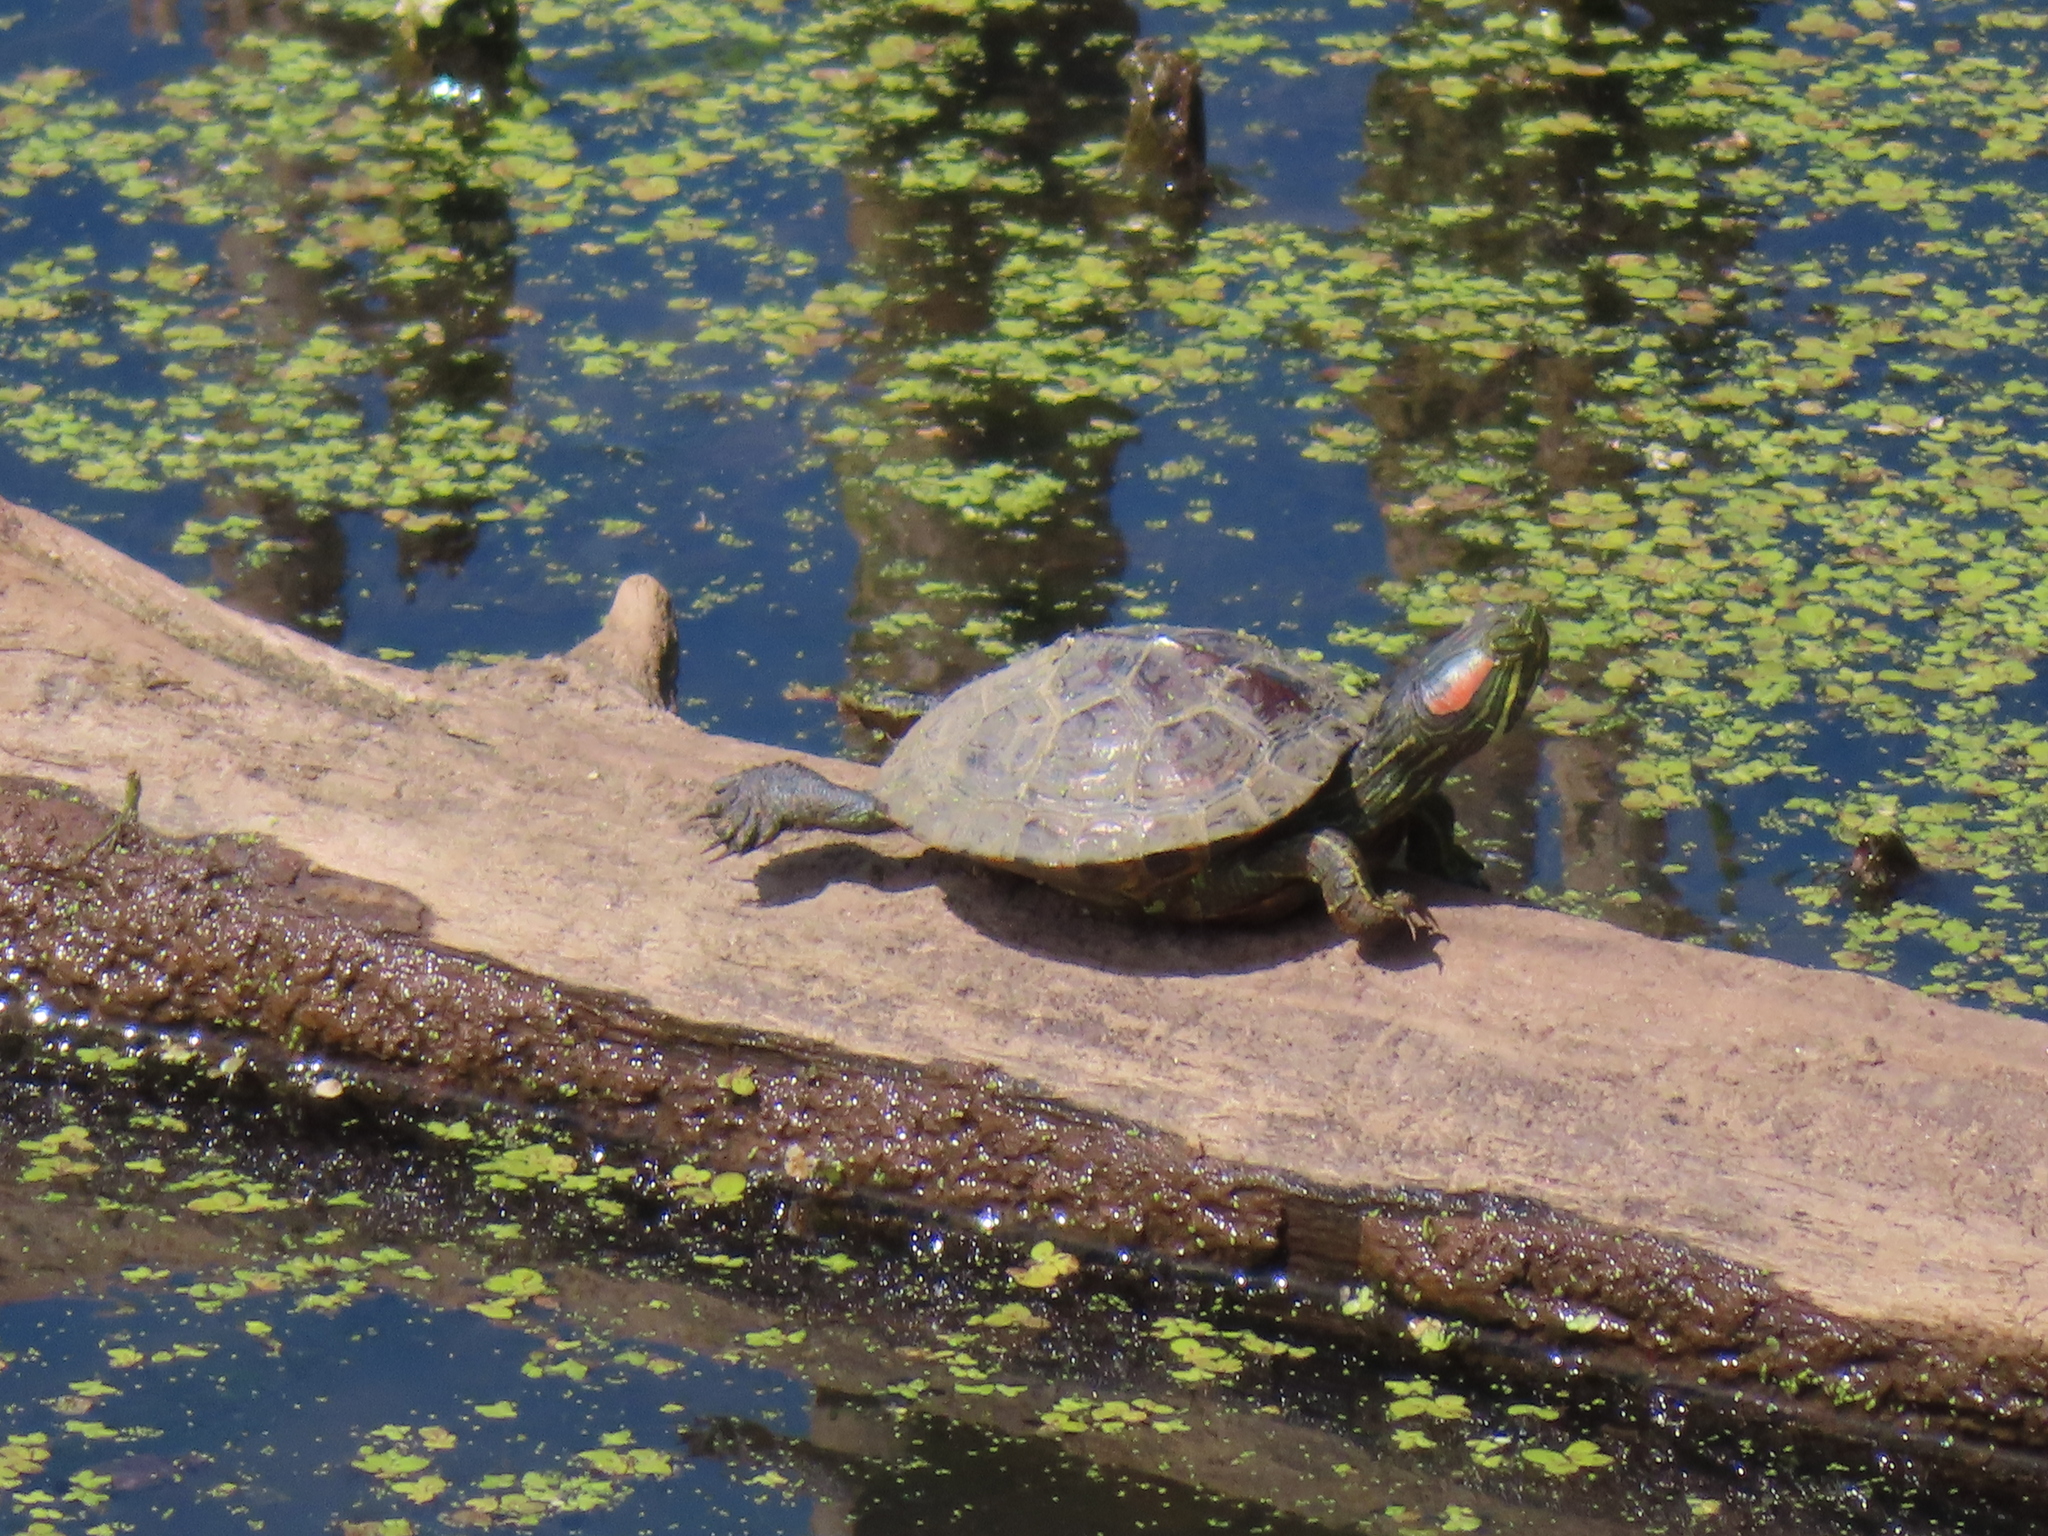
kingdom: Animalia
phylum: Chordata
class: Testudines
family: Emydidae
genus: Trachemys
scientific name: Trachemys scripta
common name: Slider
